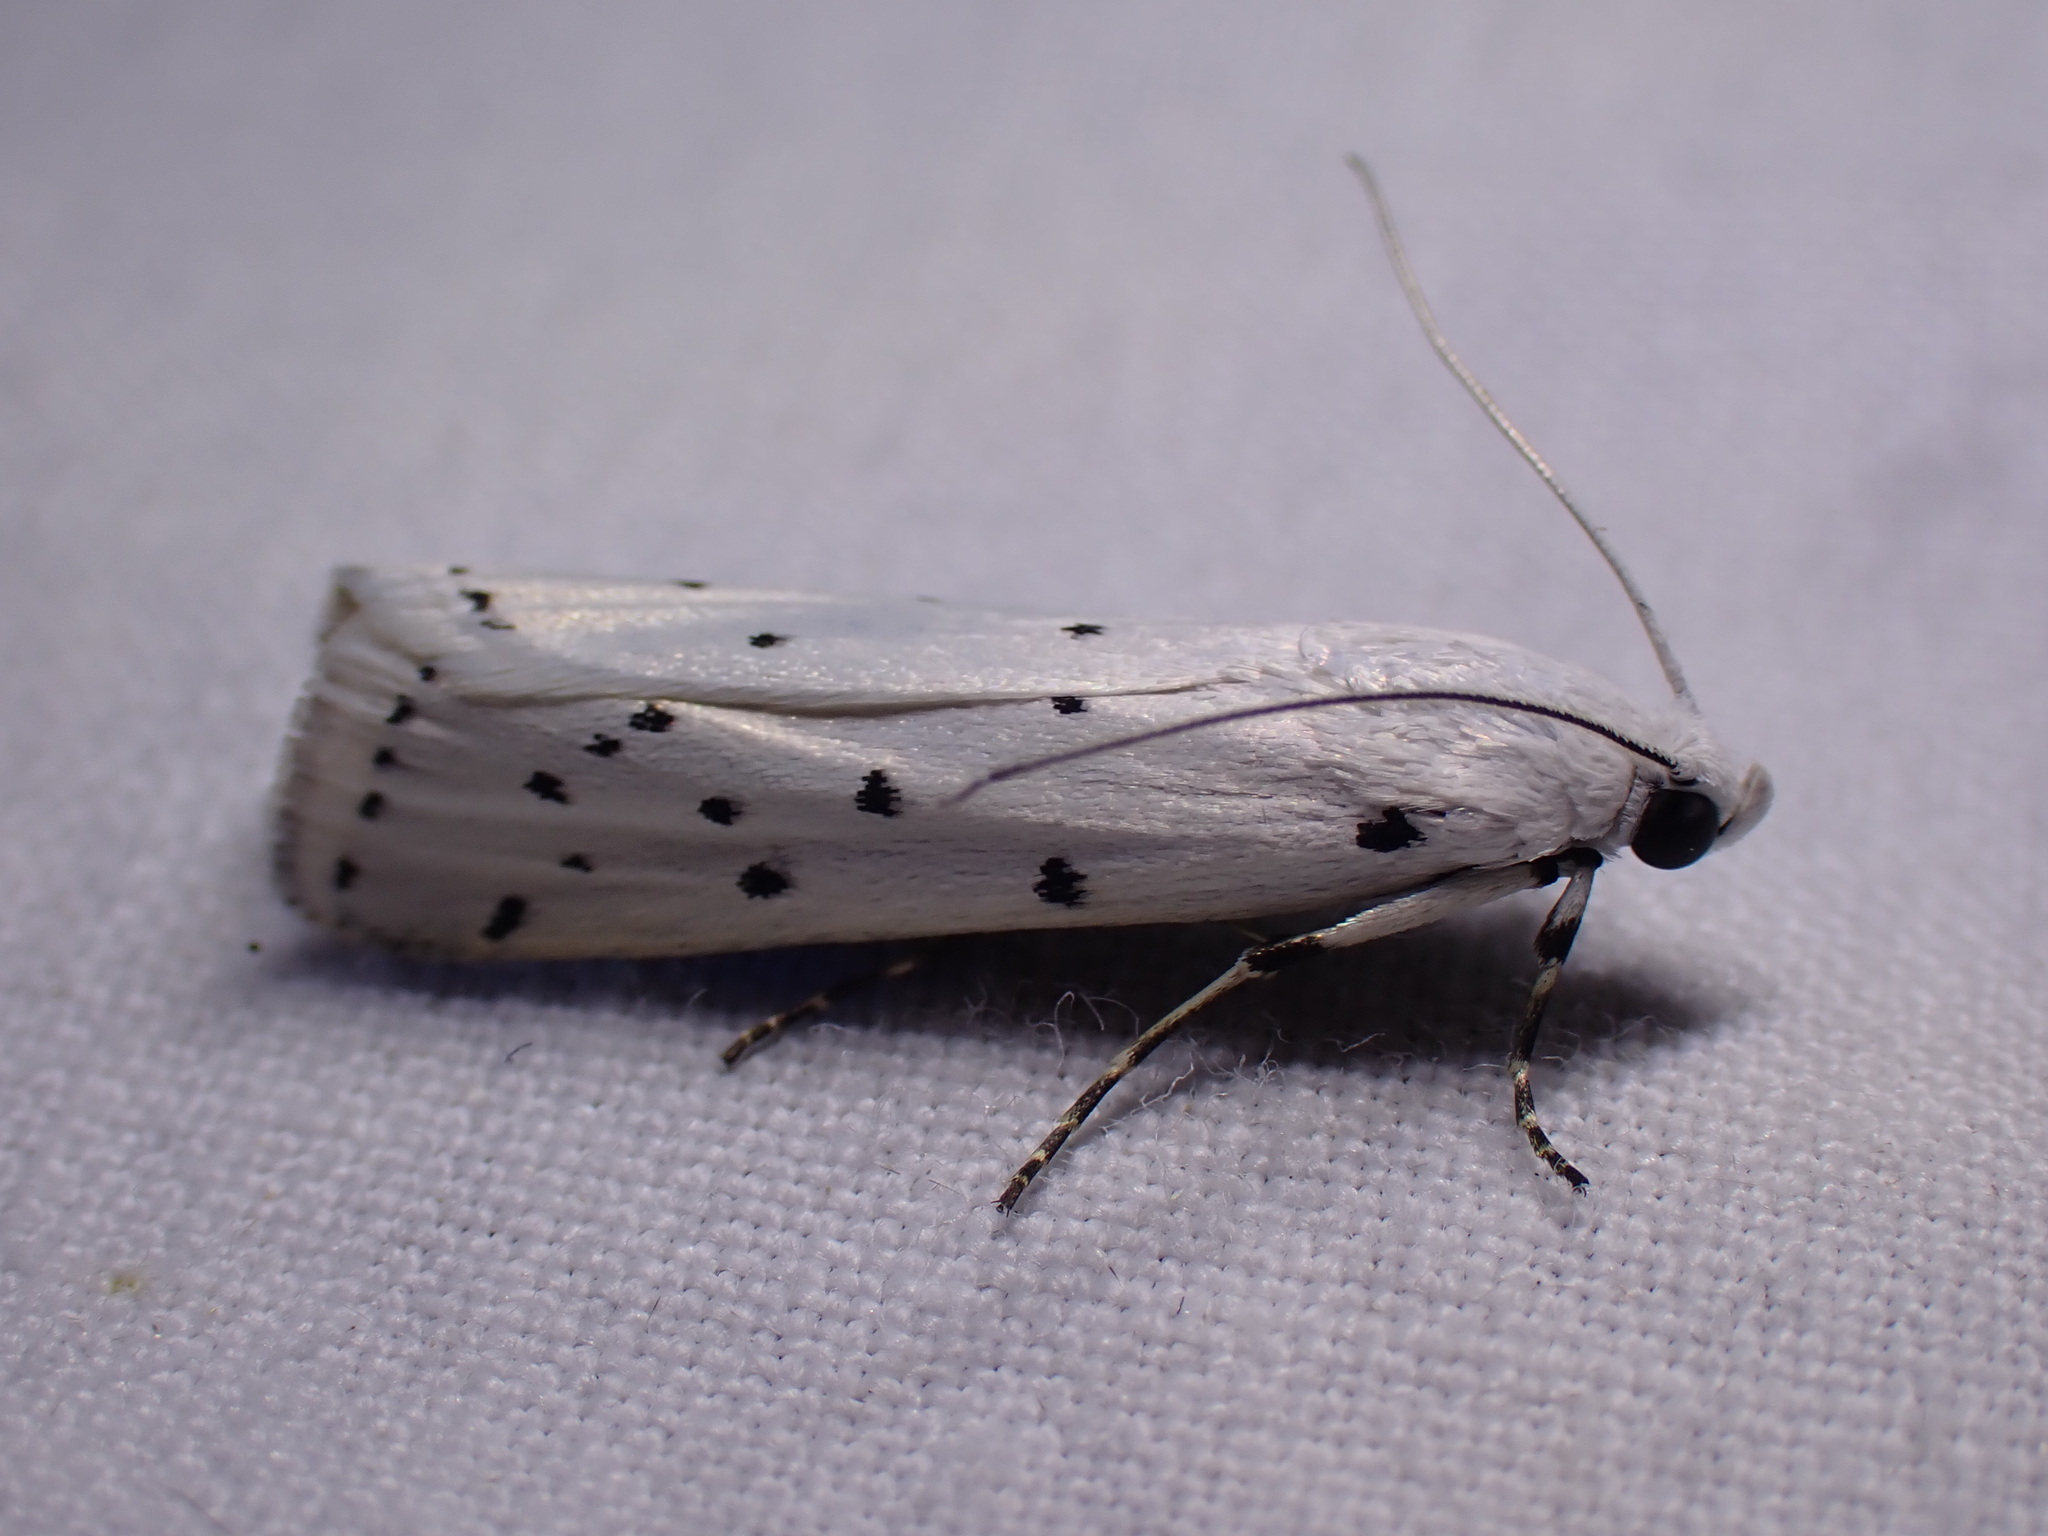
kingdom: Animalia
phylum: Arthropoda
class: Insecta
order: Lepidoptera
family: Pyralidae
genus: Myelois
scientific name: Myelois circumvoluta
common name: Thistle ermine
